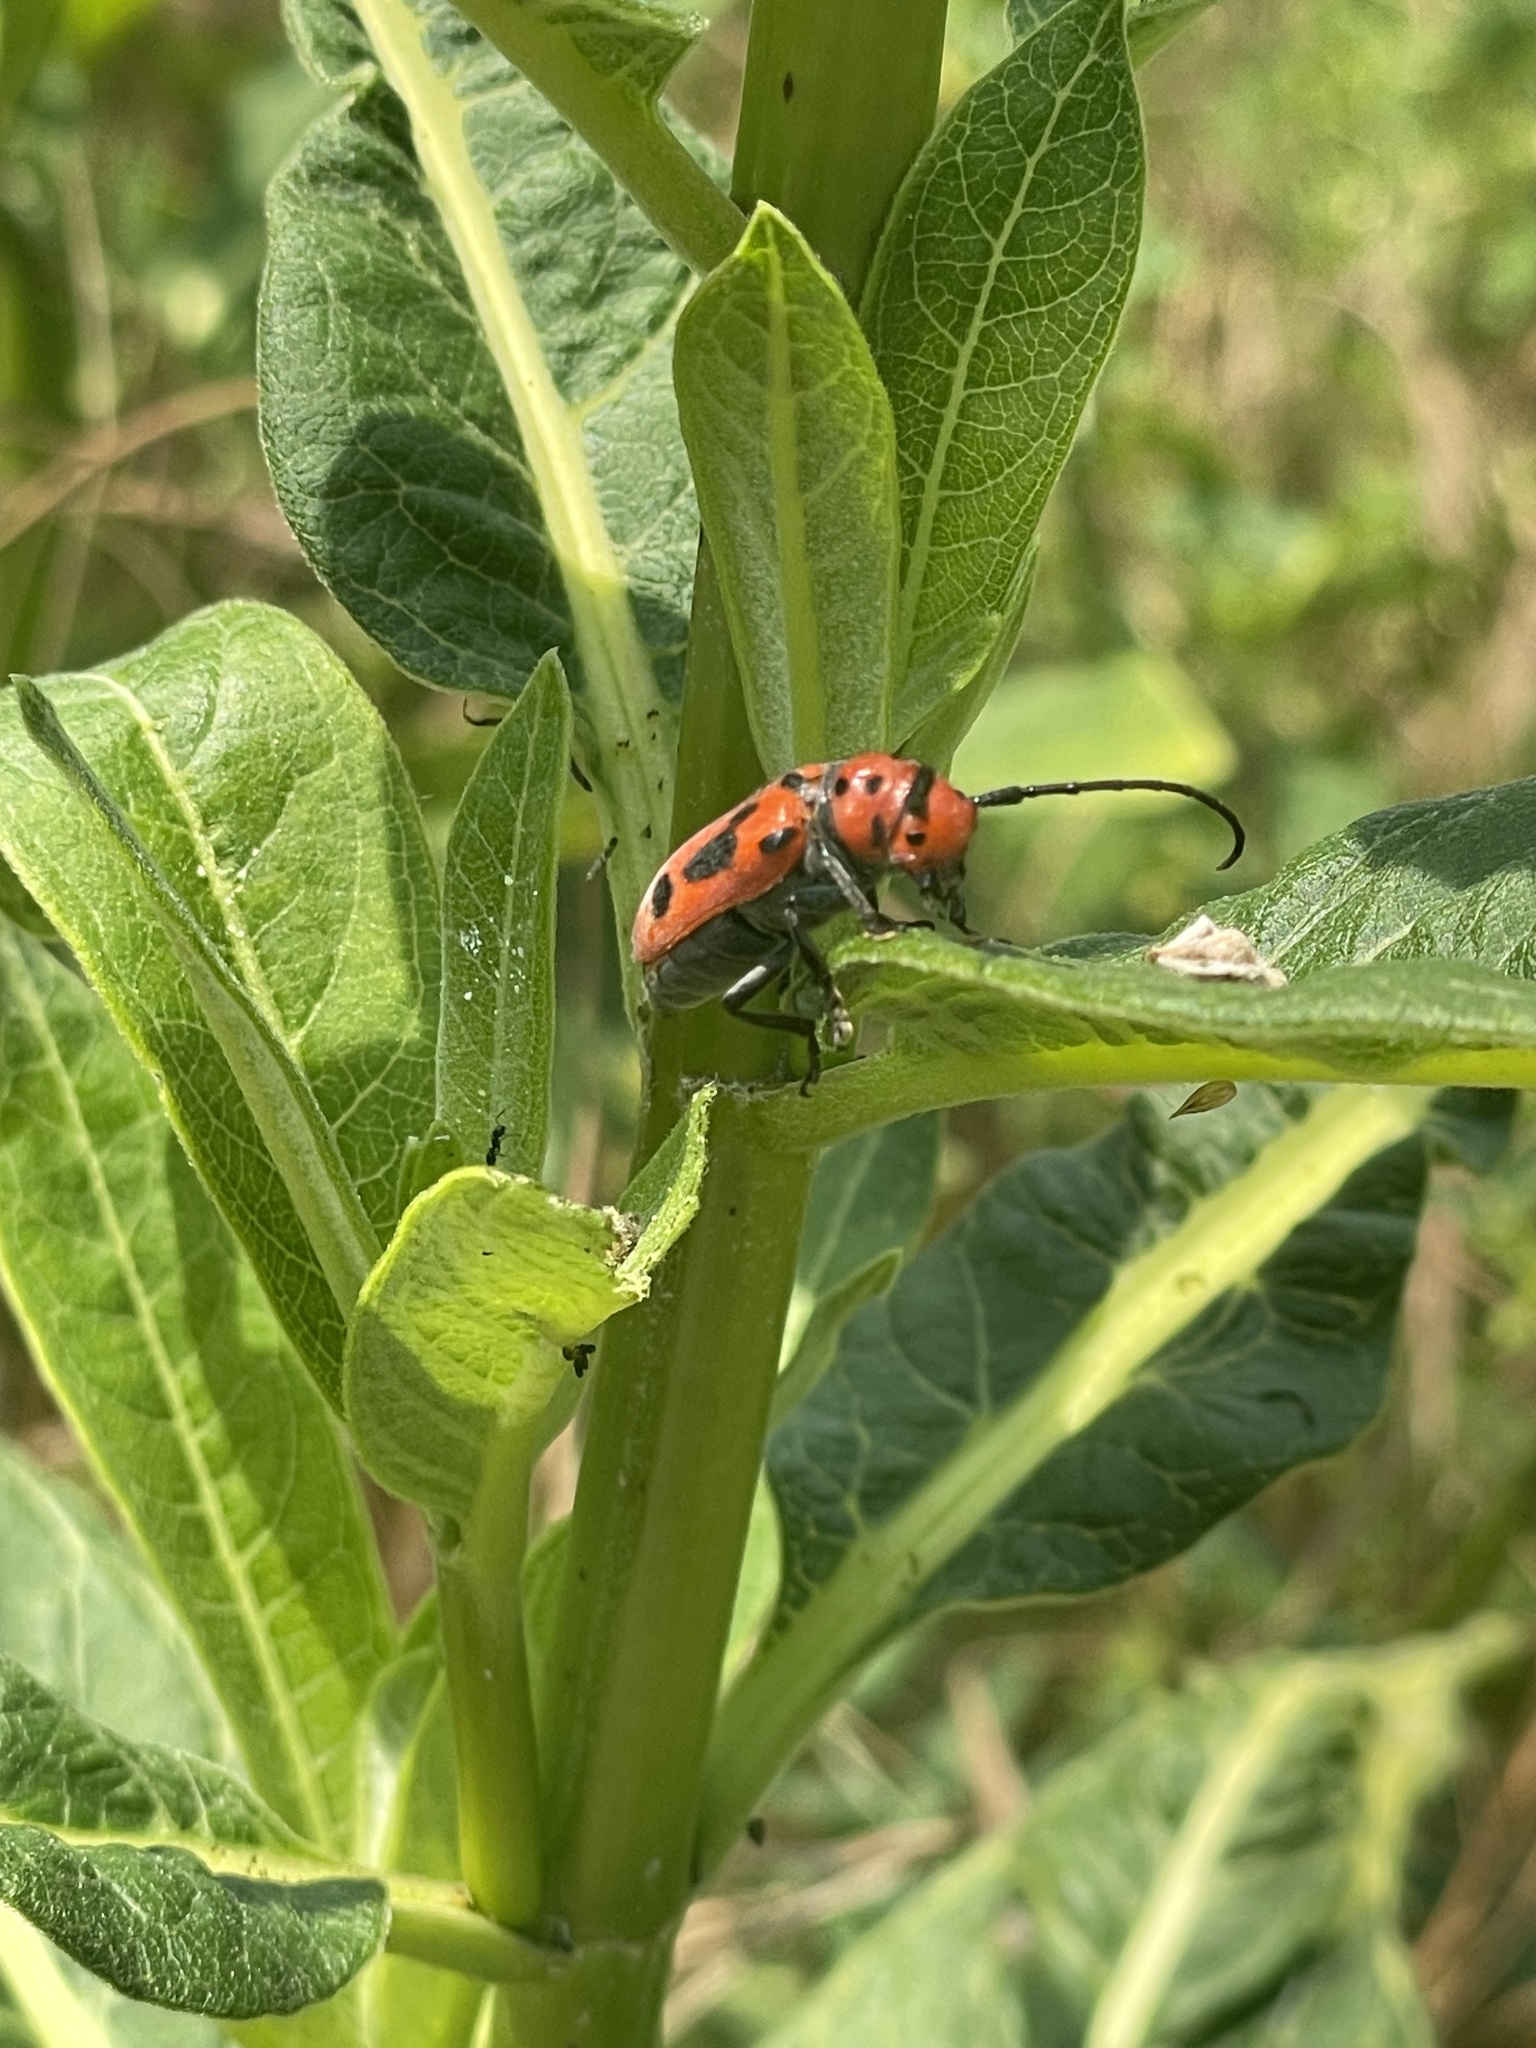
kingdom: Animalia
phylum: Arthropoda
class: Insecta
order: Coleoptera
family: Cerambycidae
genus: Tetraopes
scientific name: Tetraopes tetrophthalmus
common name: Red milkweed beetle
